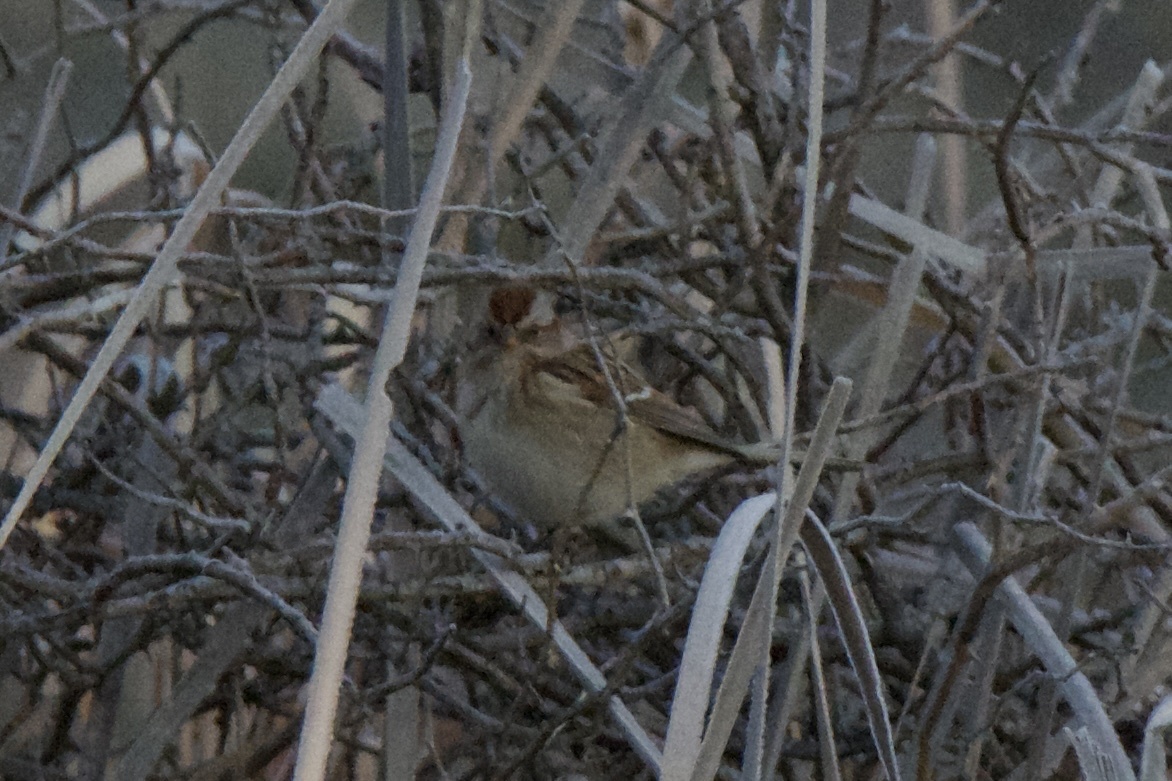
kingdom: Animalia
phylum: Chordata
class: Aves
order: Passeriformes
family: Passerellidae
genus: Spizelloides
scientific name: Spizelloides arborea
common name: American tree sparrow
